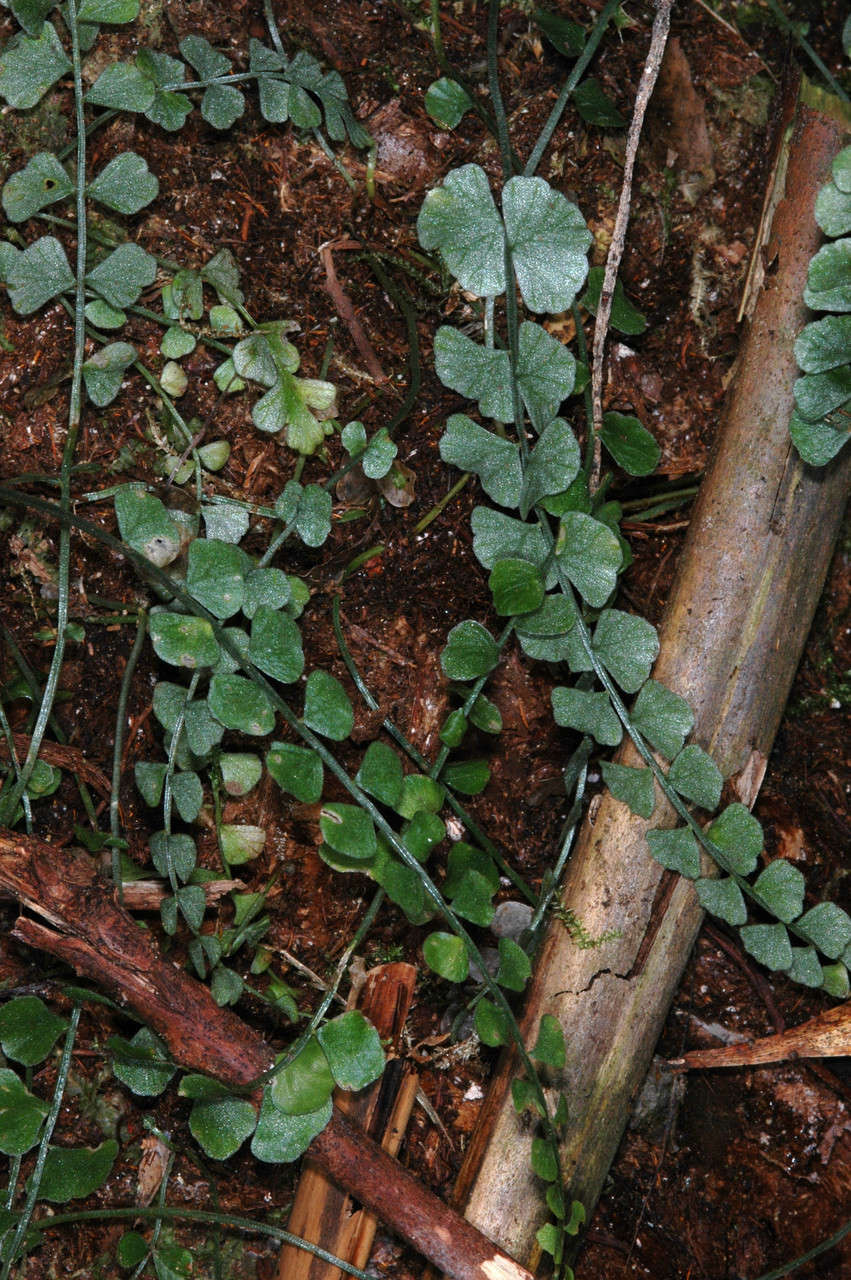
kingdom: Plantae
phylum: Tracheophyta
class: Polypodiopsida
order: Polypodiales
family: Aspleniaceae
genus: Asplenium
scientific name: Asplenium flabellifolium
